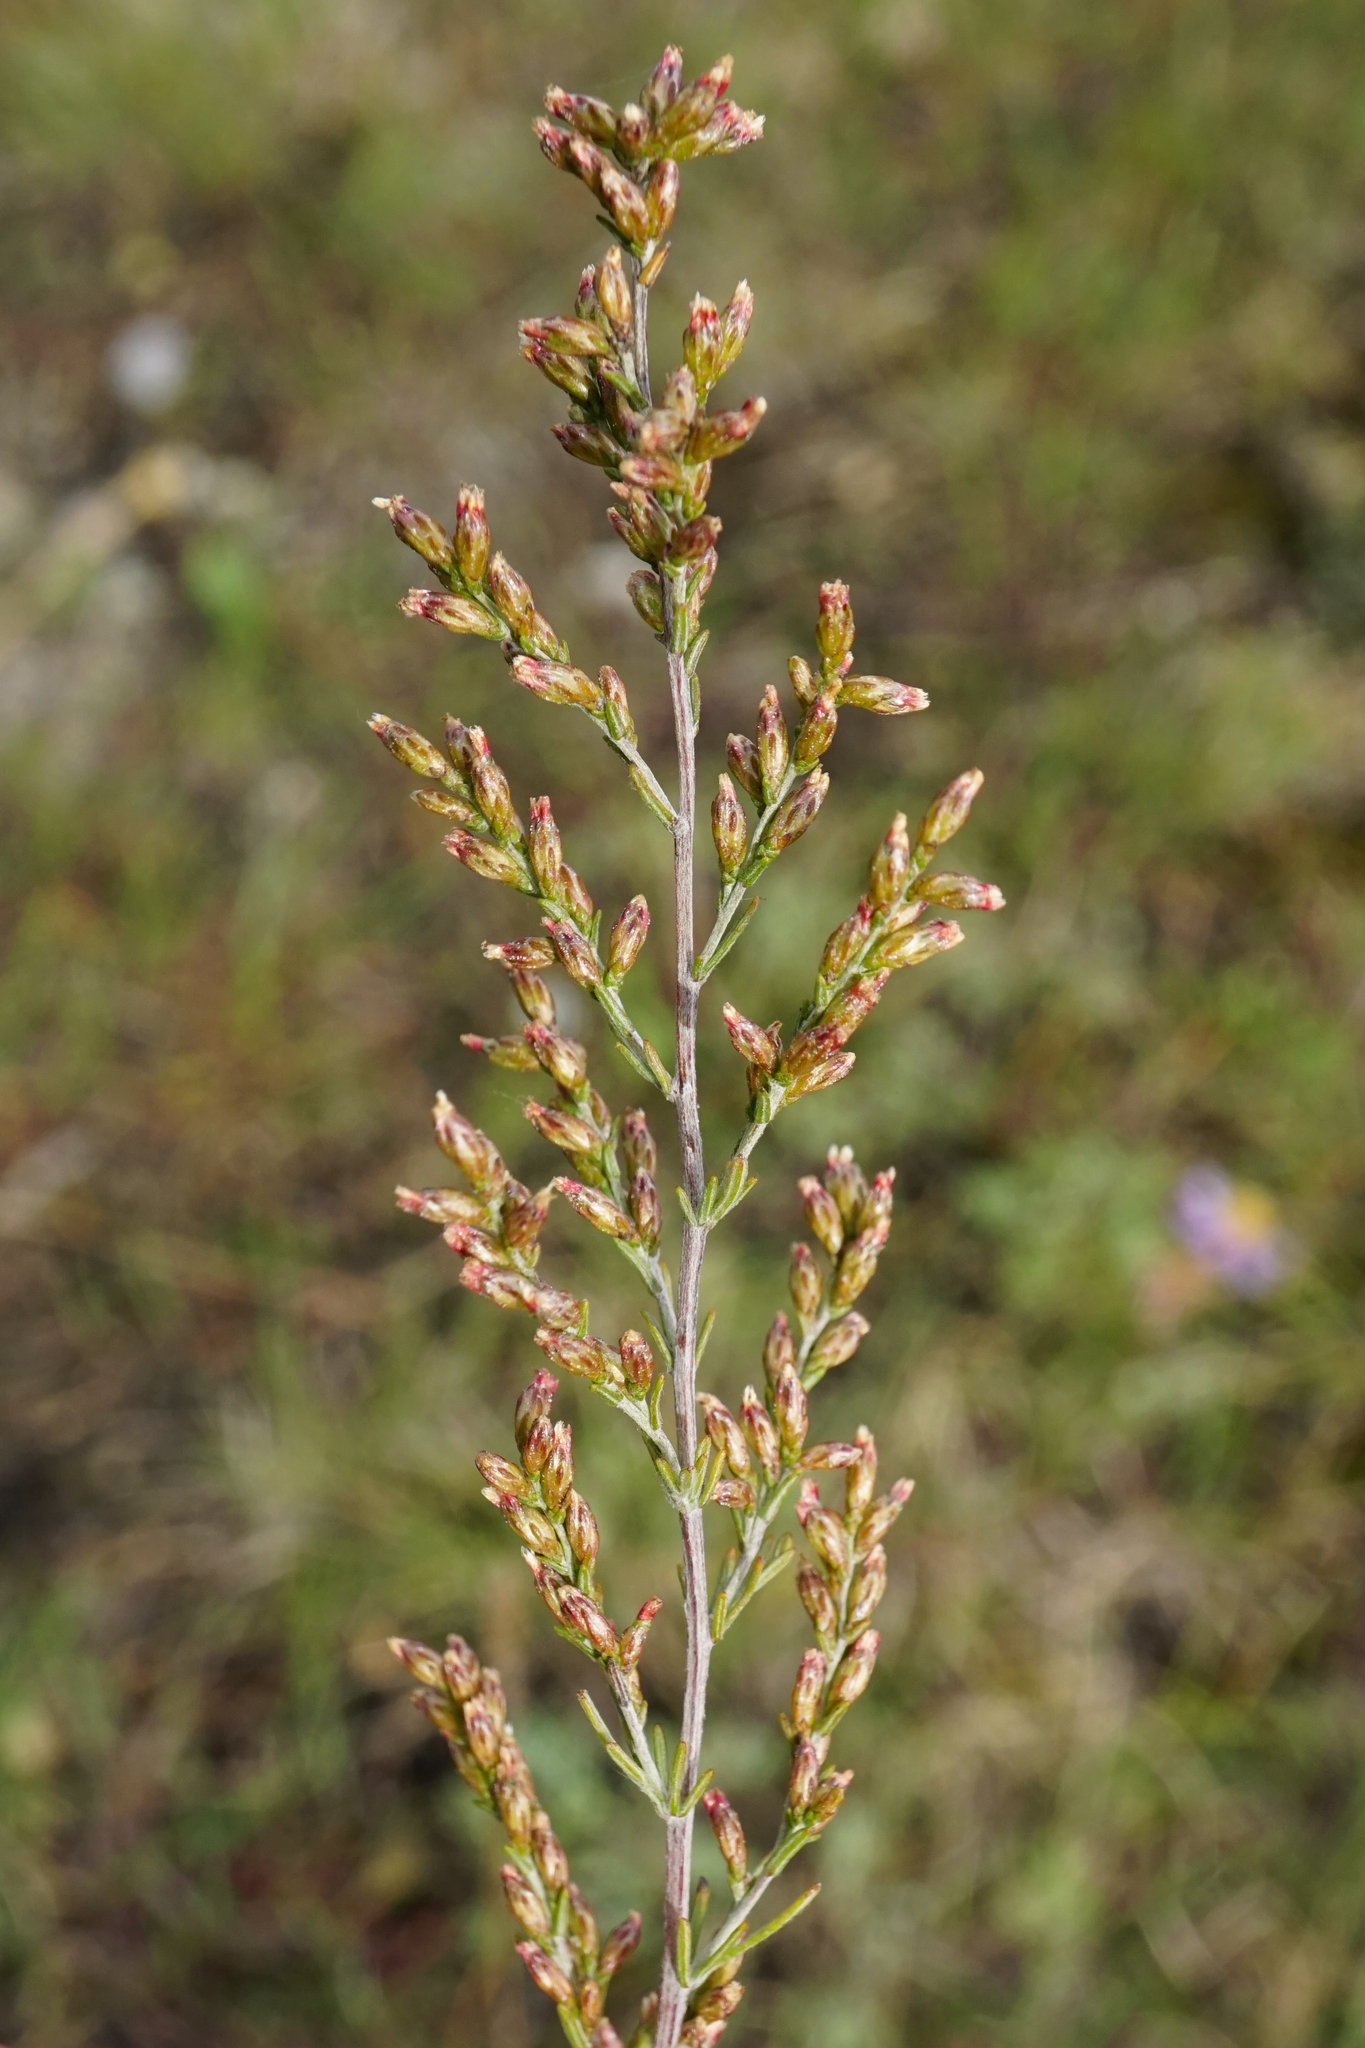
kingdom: Plantae
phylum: Tracheophyta
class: Magnoliopsida
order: Asterales
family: Asteraceae
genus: Artemisia
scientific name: Artemisia santonicum
